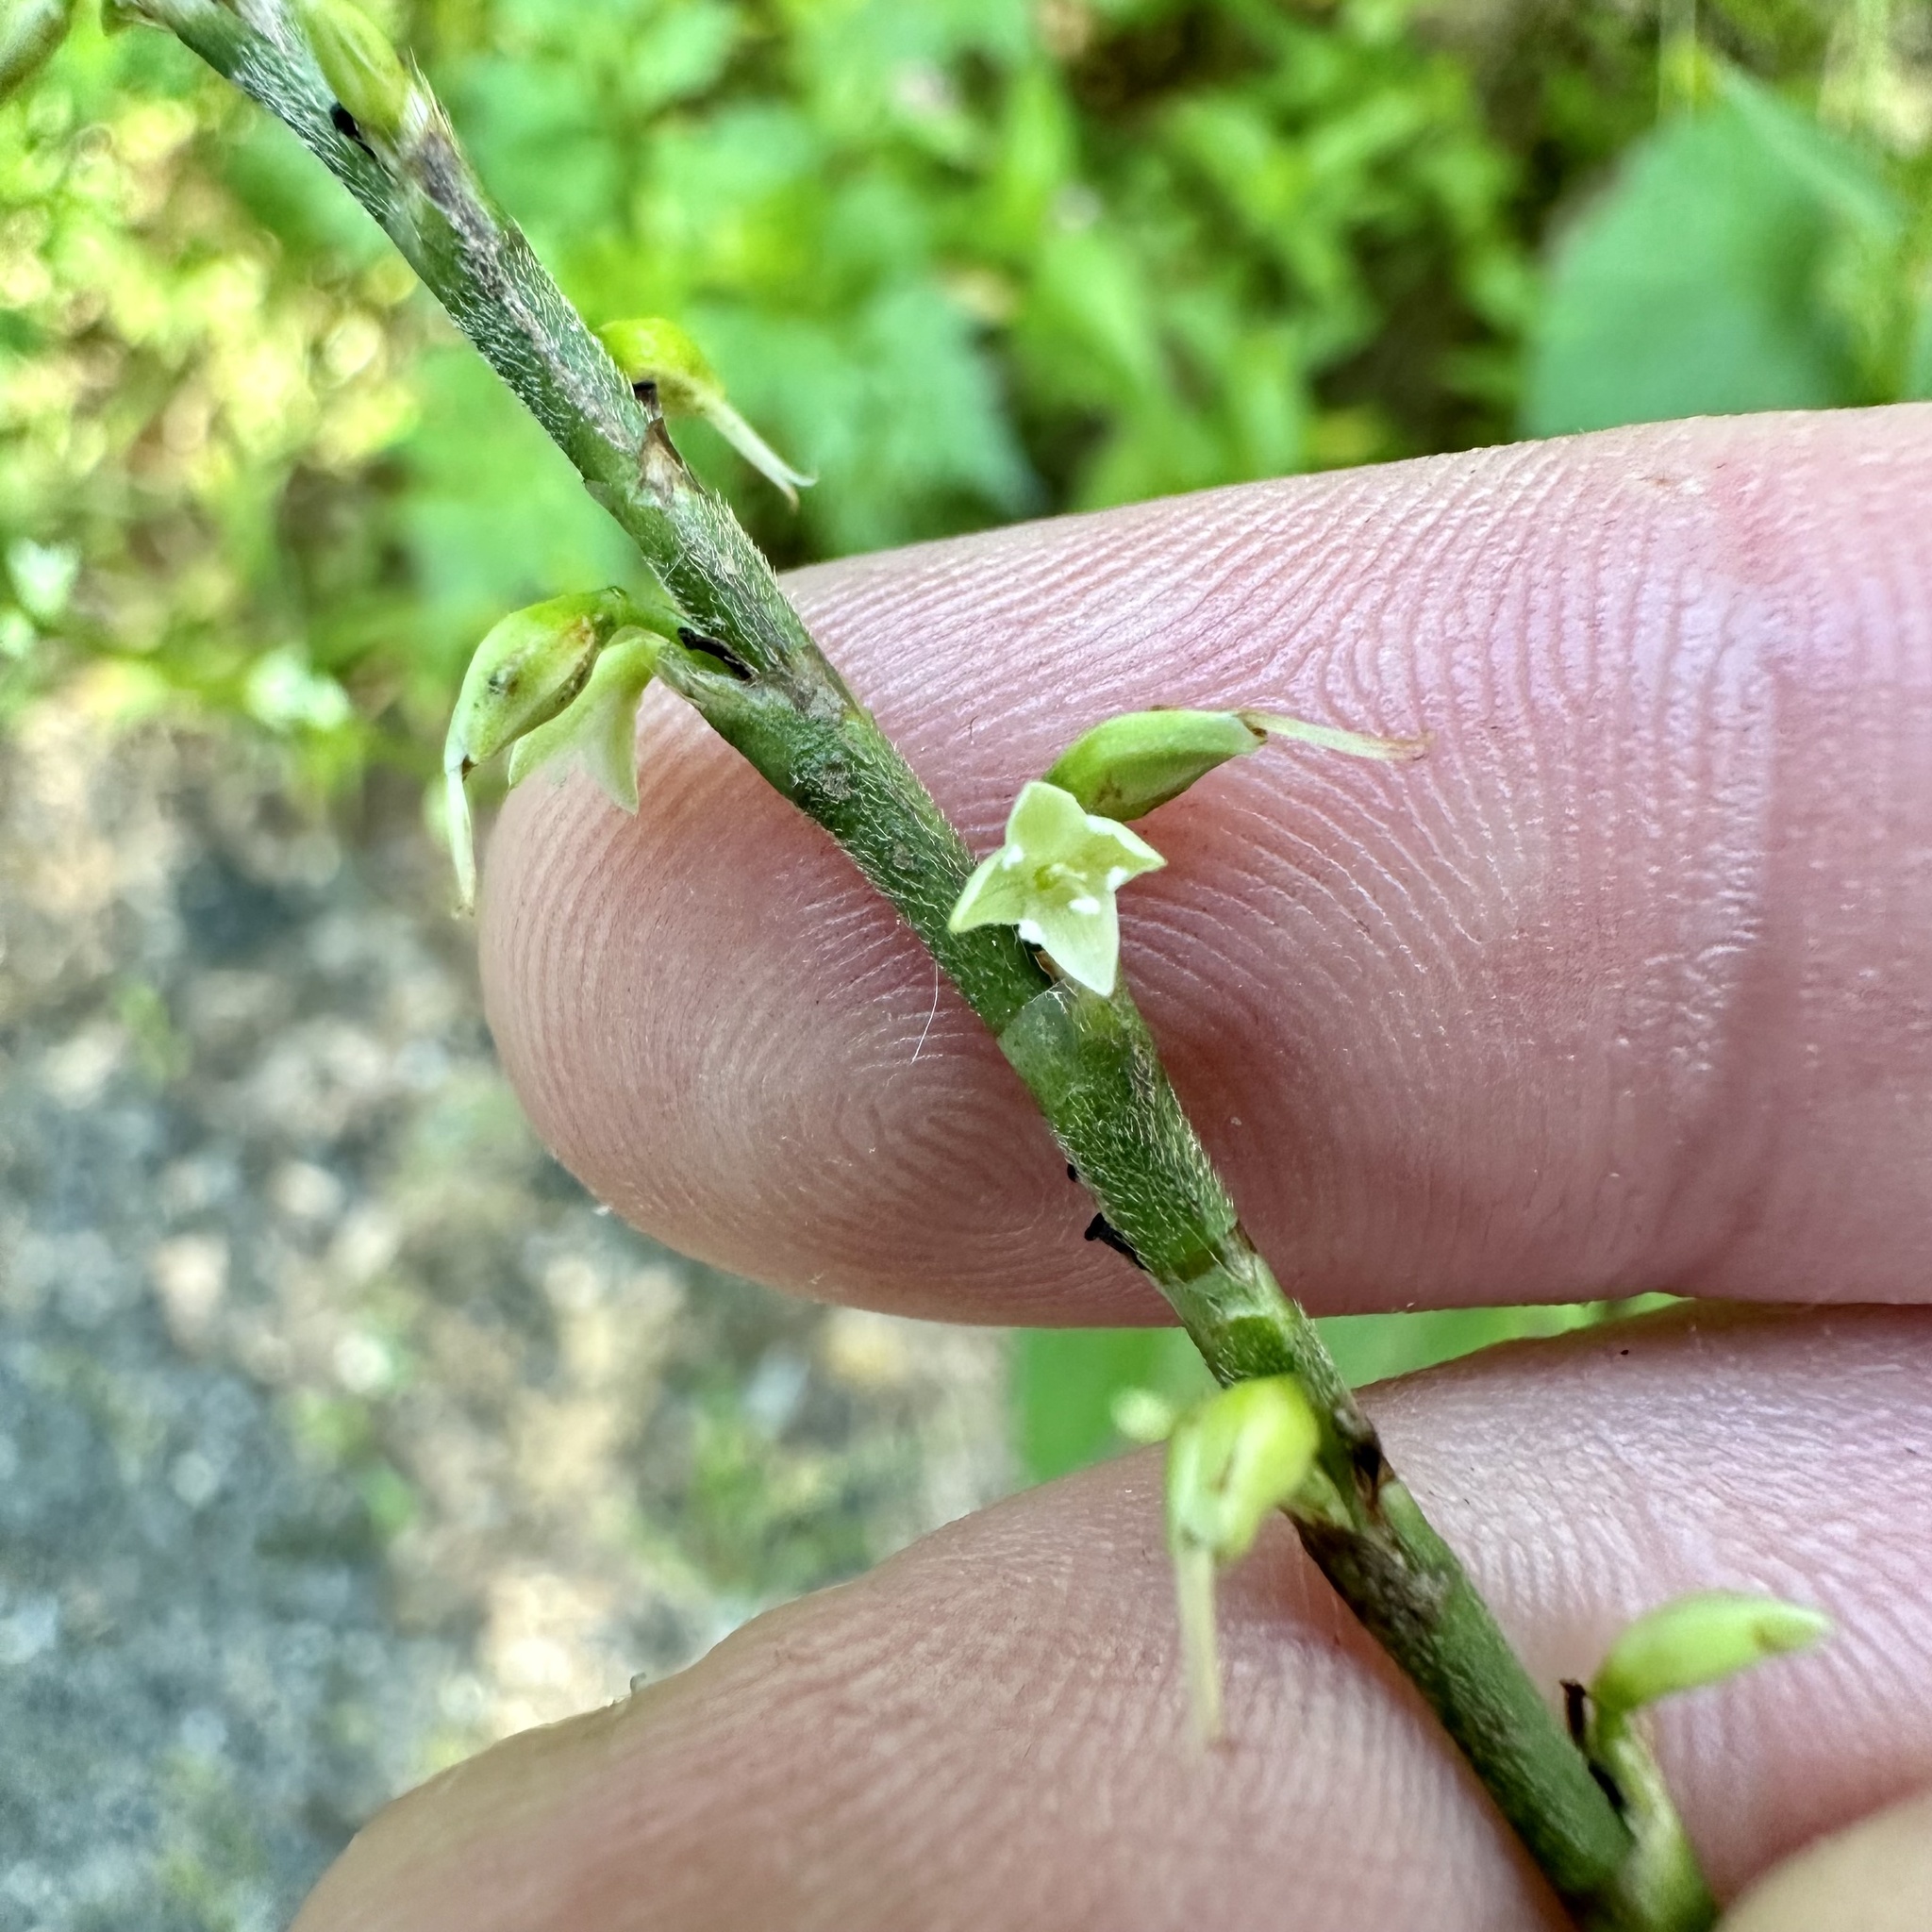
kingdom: Plantae
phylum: Tracheophyta
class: Magnoliopsida
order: Caryophyllales
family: Polygonaceae
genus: Persicaria
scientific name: Persicaria virginiana
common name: Jumpseed
